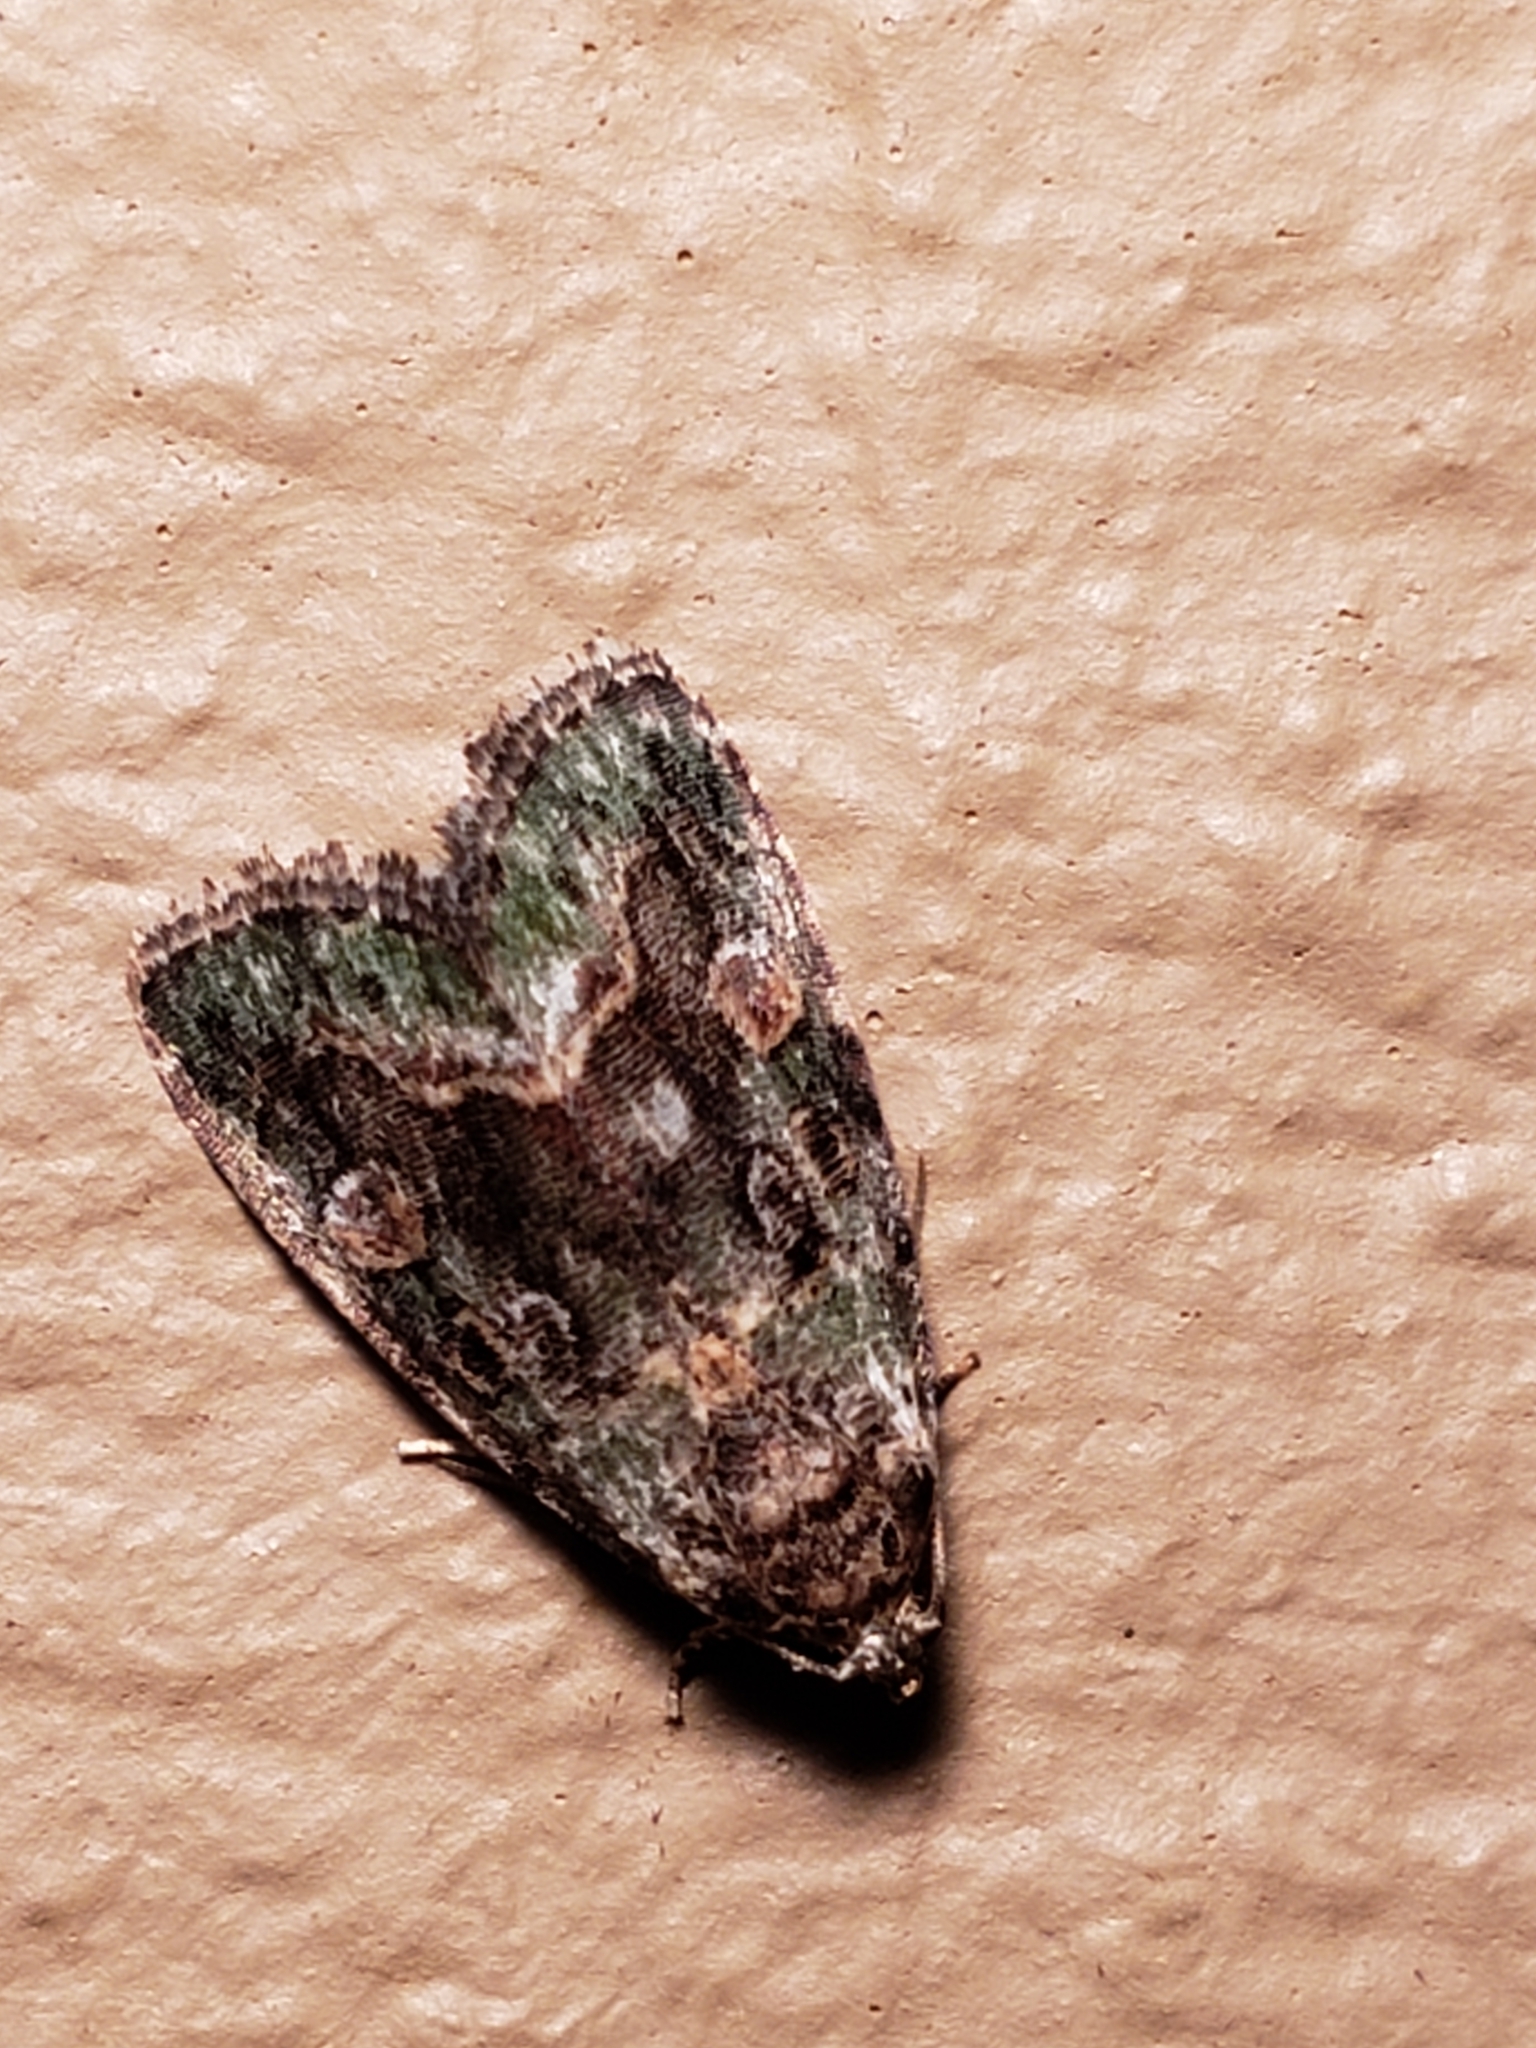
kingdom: Animalia
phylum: Arthropoda
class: Insecta
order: Lepidoptera
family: Noctuidae
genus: Lithacodia
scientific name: Lithacodia musta
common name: Small mossy glyph
